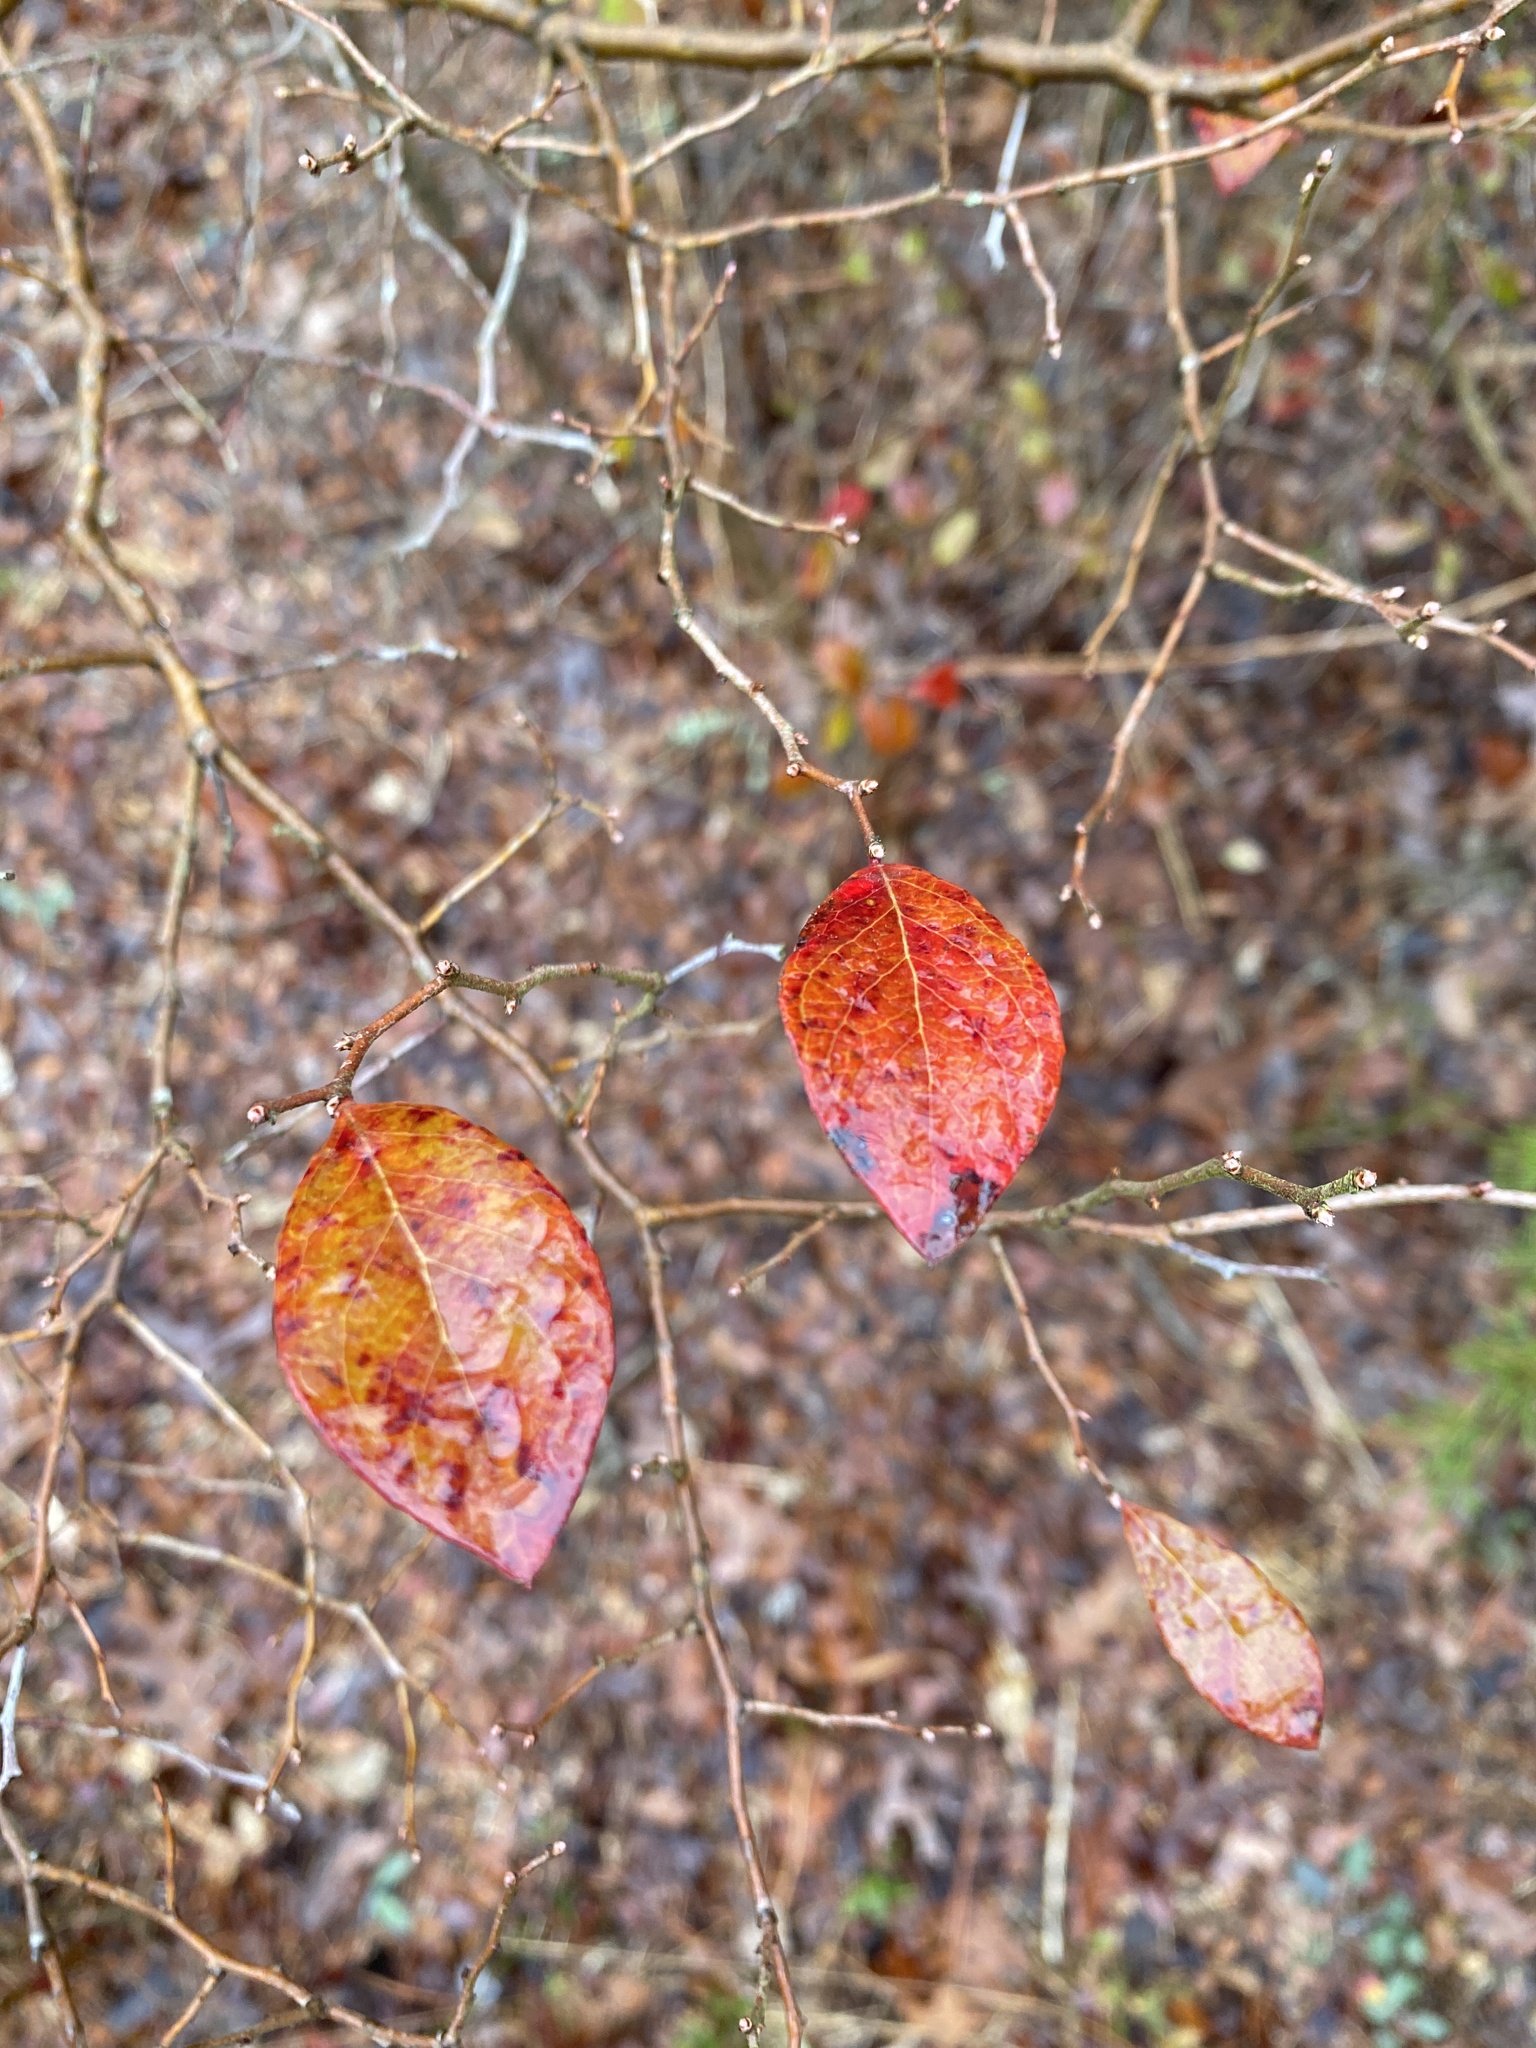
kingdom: Plantae
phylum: Tracheophyta
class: Magnoliopsida
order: Ericales
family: Ericaceae
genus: Vaccinium
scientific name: Vaccinium arboreum
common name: Farkleberry
